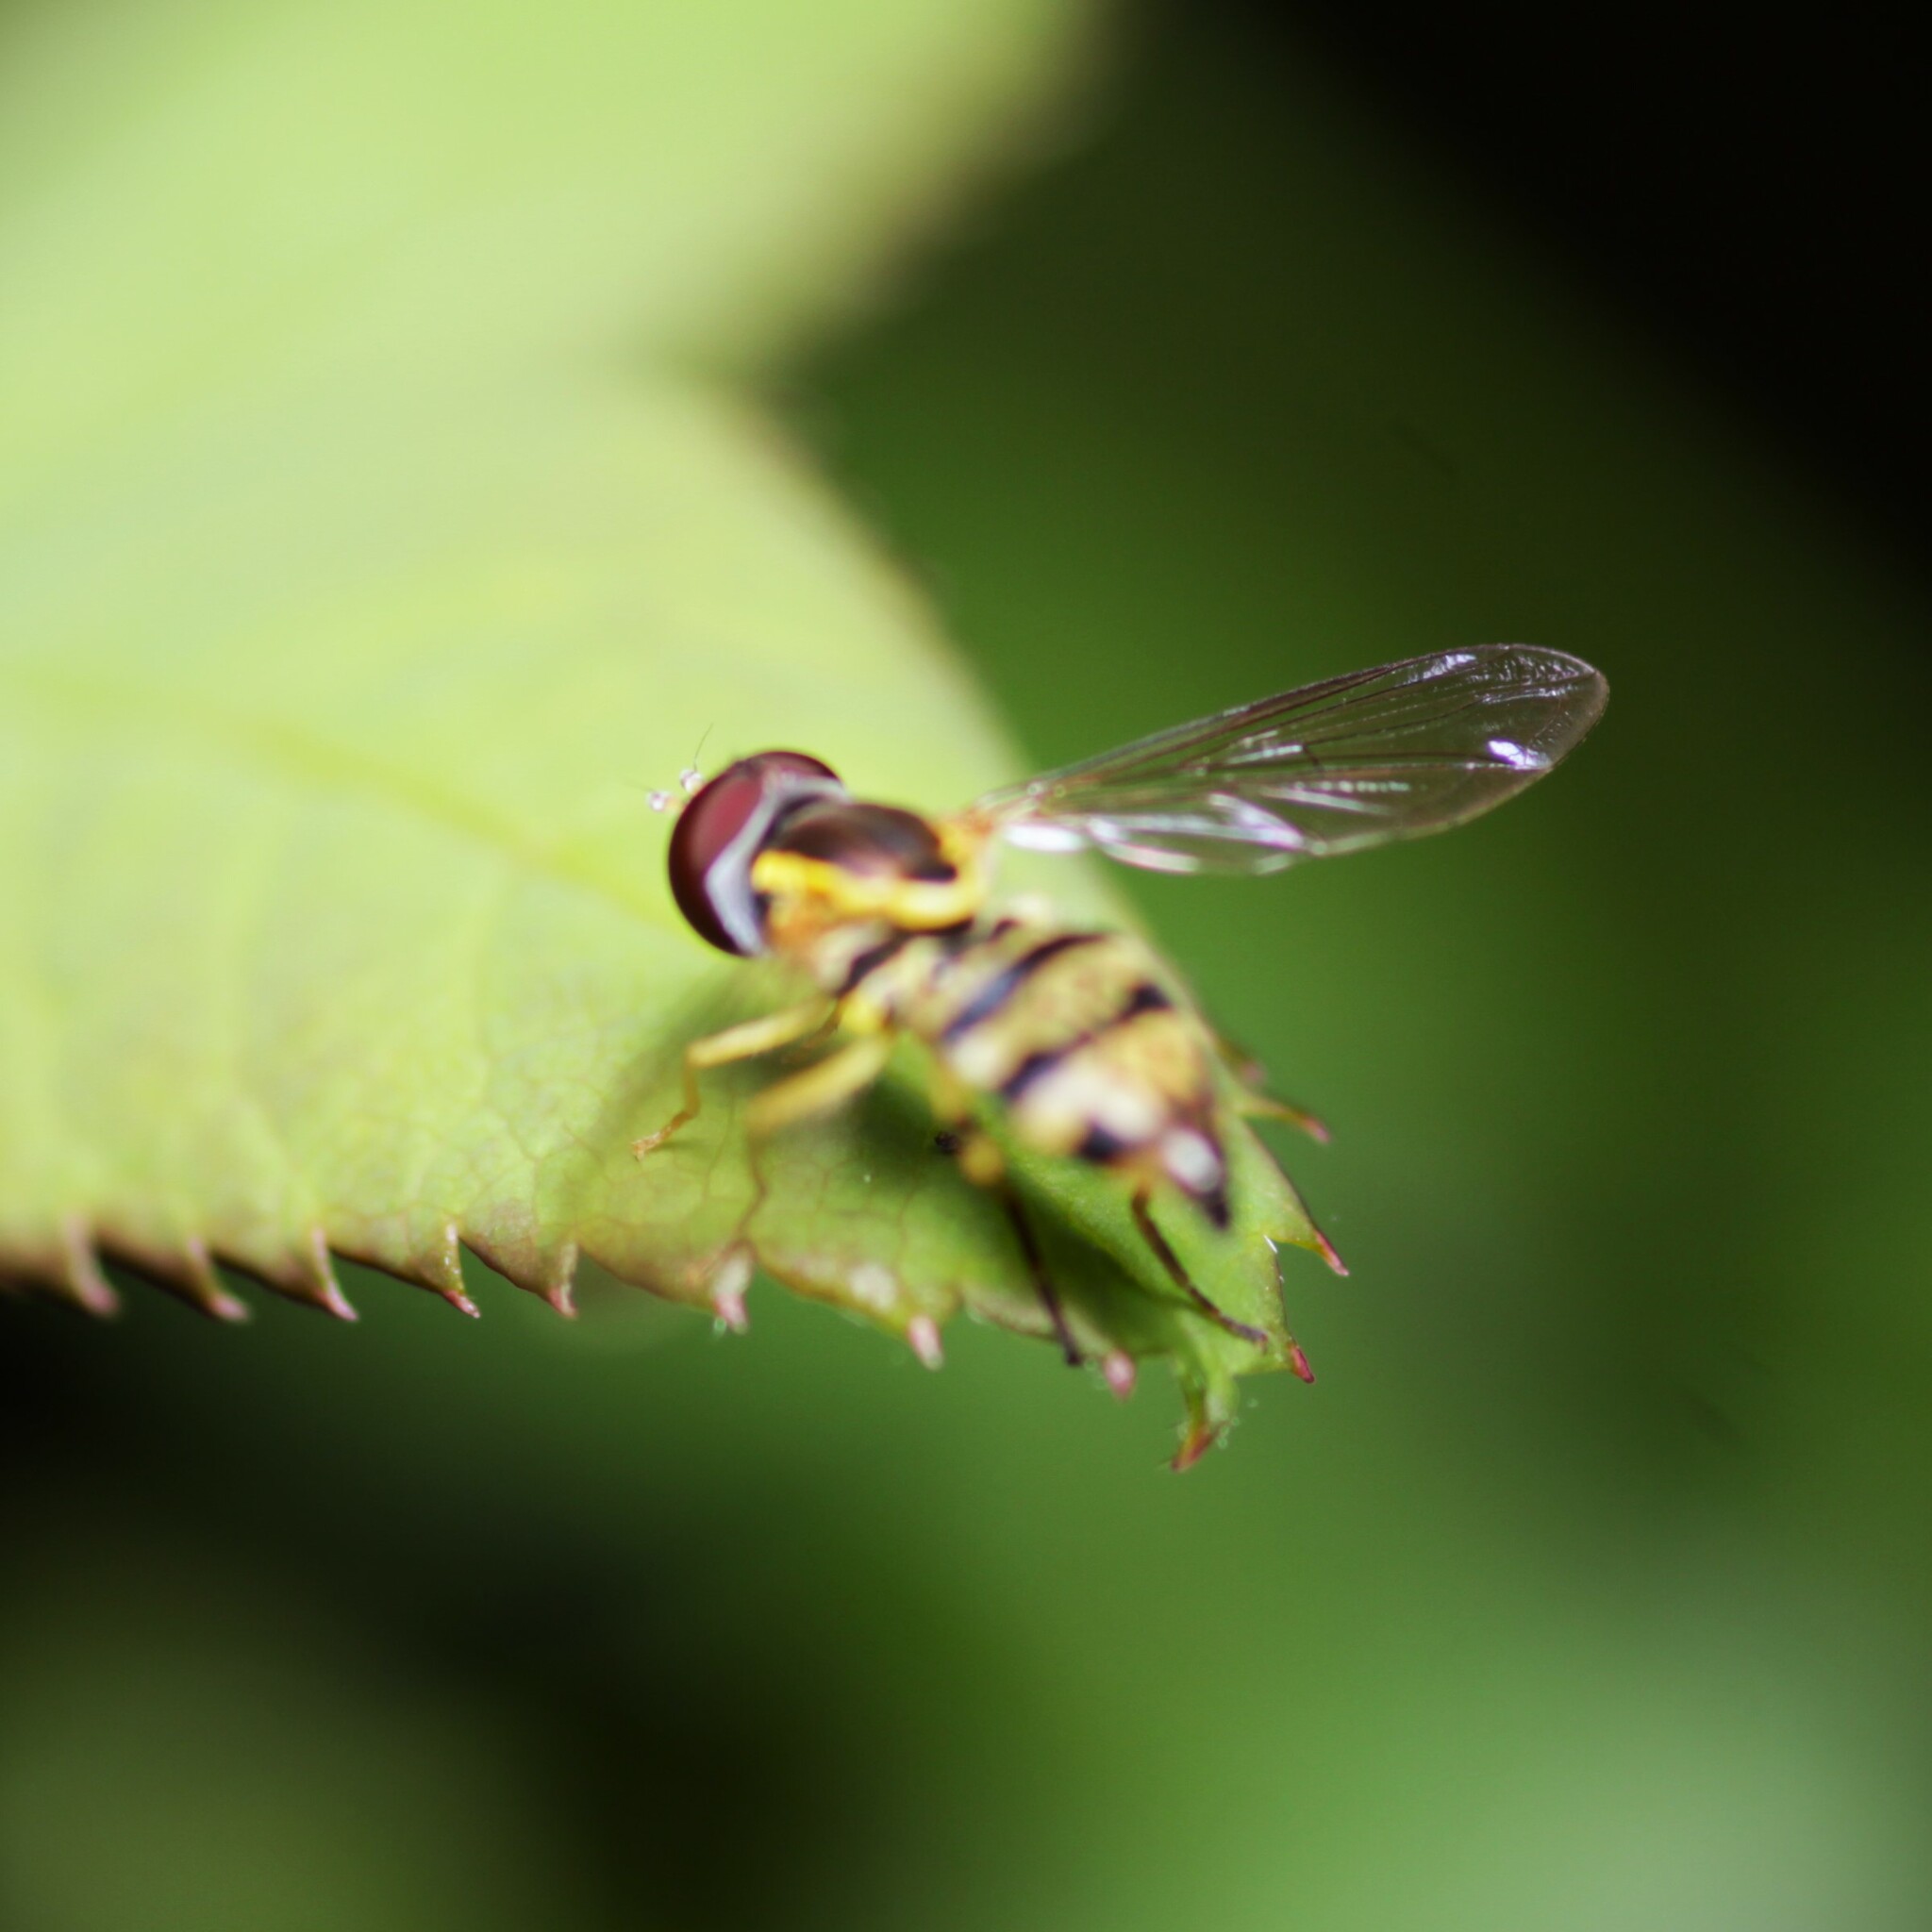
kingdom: Animalia
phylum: Arthropoda
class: Insecta
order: Diptera
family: Syrphidae
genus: Toxomerus
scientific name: Toxomerus geminatus
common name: Eastern calligrapher
